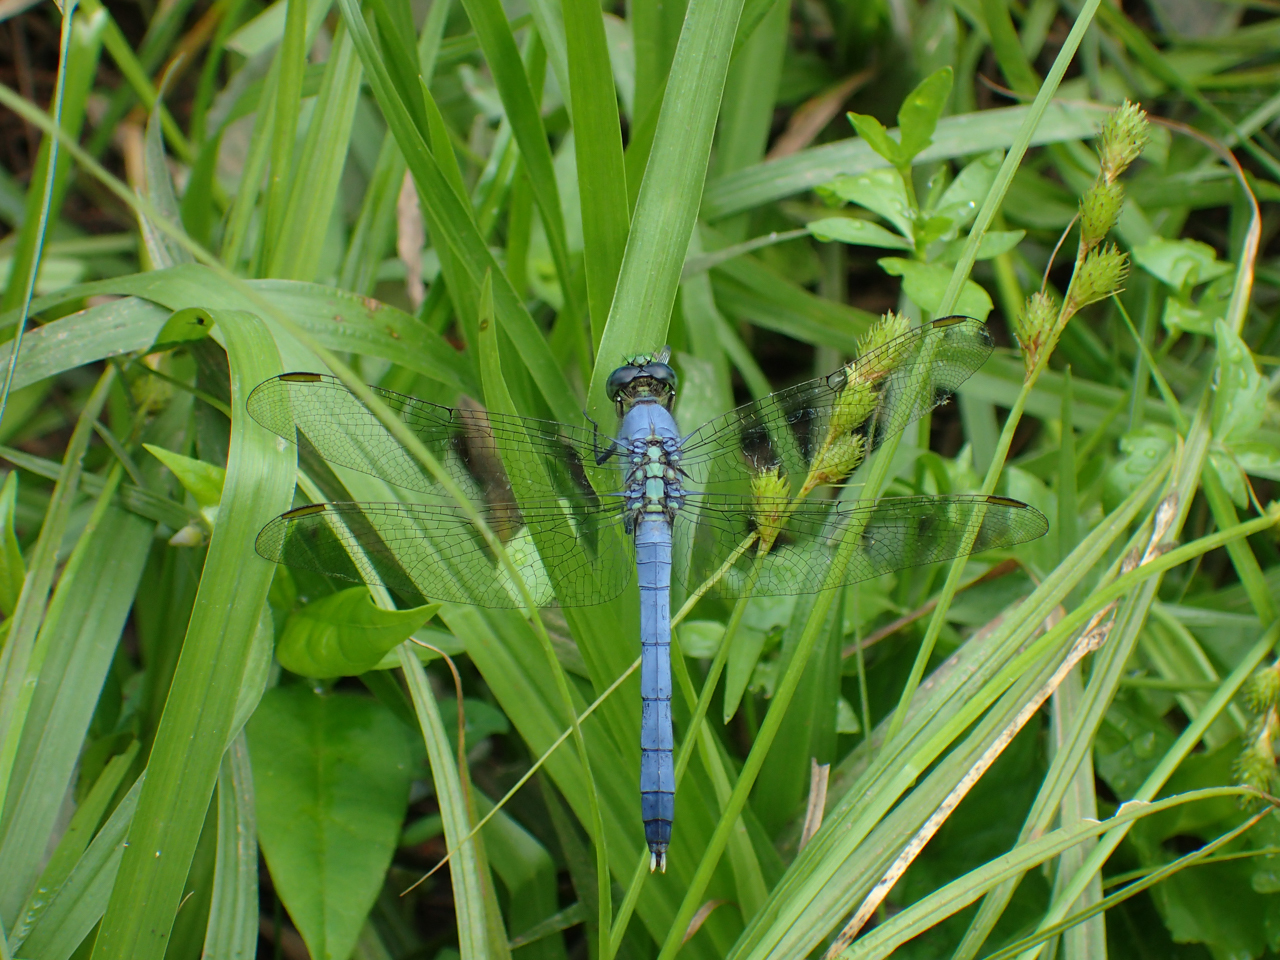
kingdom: Animalia
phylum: Arthropoda
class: Insecta
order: Odonata
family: Libellulidae
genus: Erythemis
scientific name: Erythemis simplicicollis
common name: Eastern pondhawk
